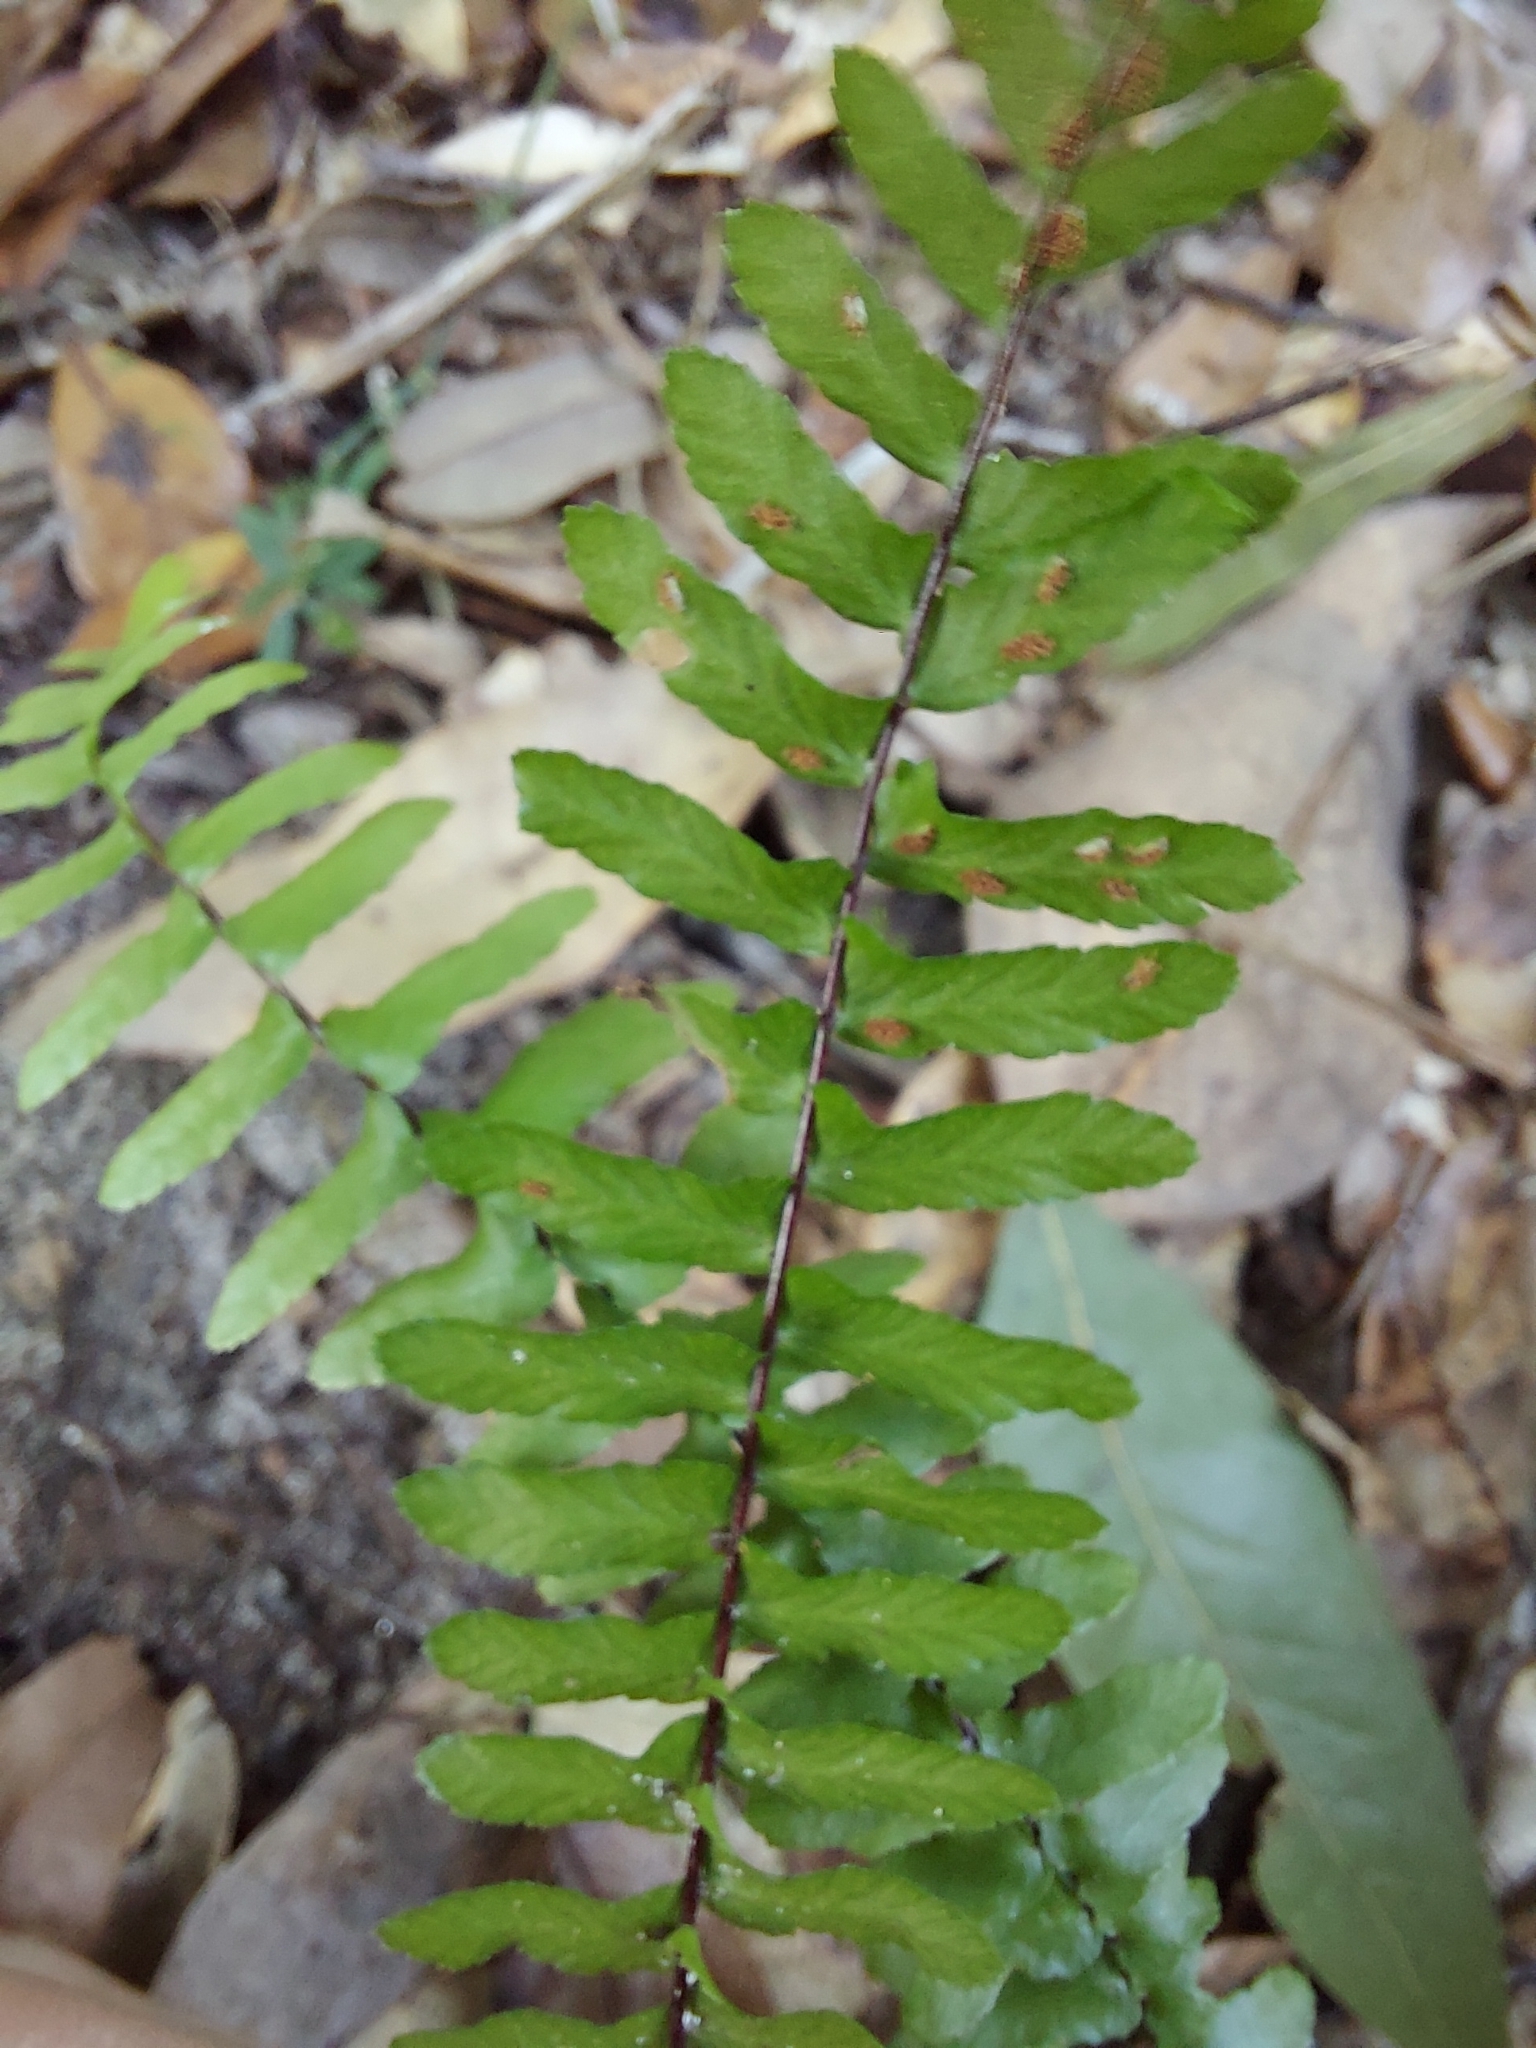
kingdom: Plantae
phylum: Tracheophyta
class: Polypodiopsida
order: Polypodiales
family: Aspleniaceae
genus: Asplenium
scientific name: Asplenium platyneuron
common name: Ebony spleenwort
